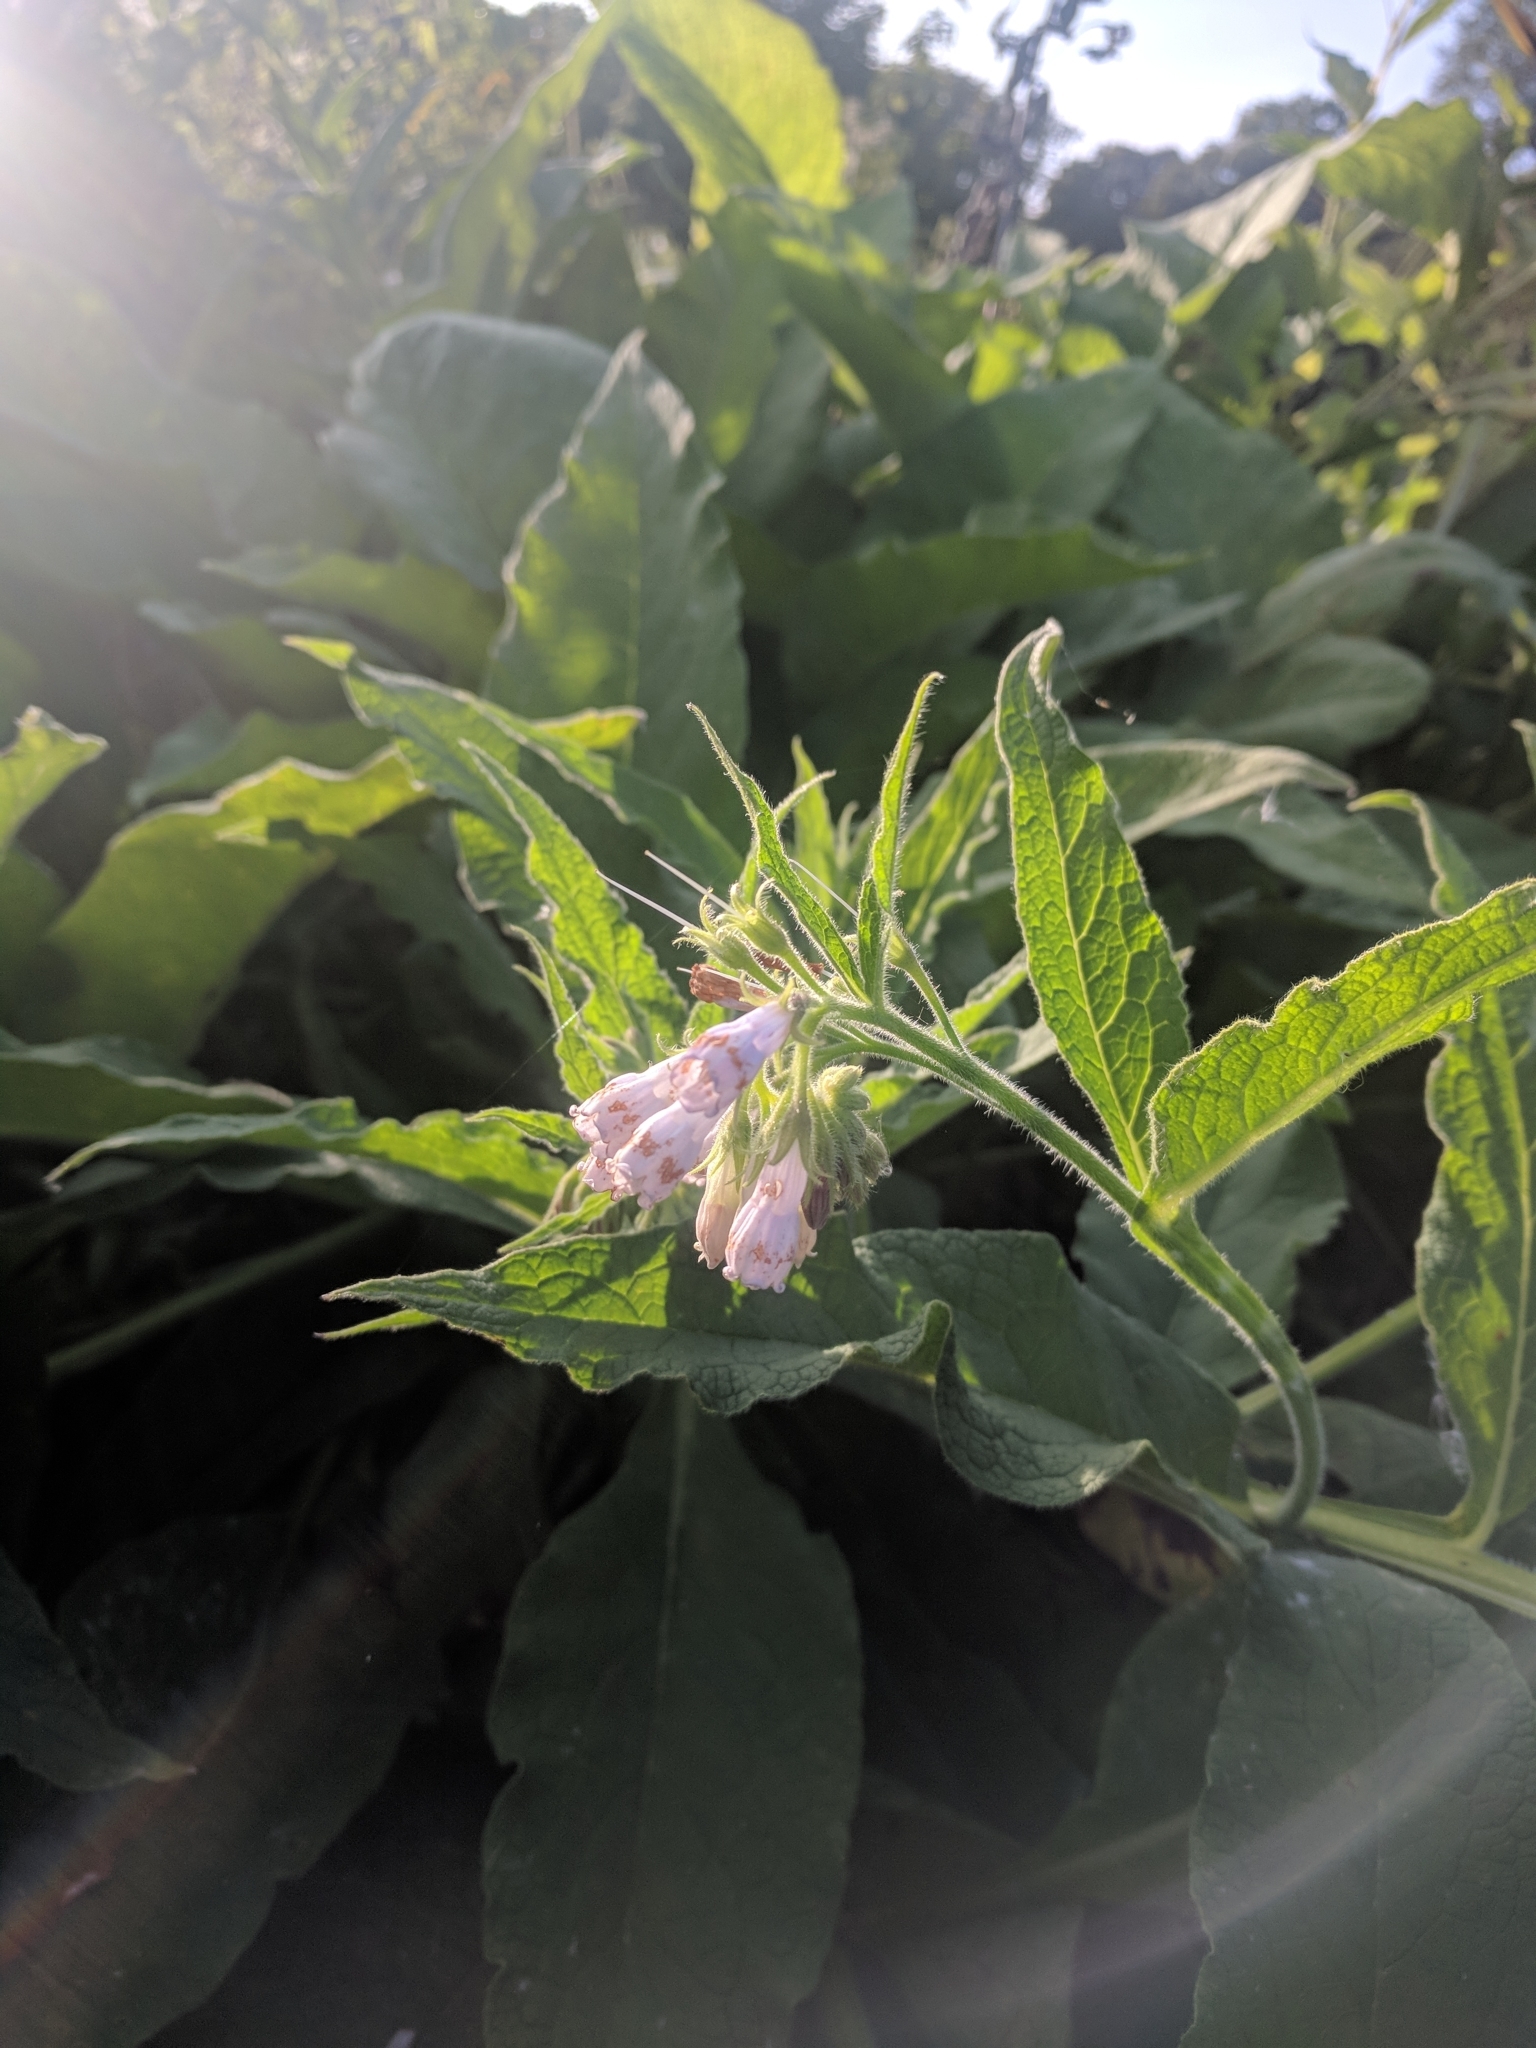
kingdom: Plantae
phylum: Tracheophyta
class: Magnoliopsida
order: Boraginales
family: Boraginaceae
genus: Symphytum
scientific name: Symphytum officinale
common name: Common comfrey
